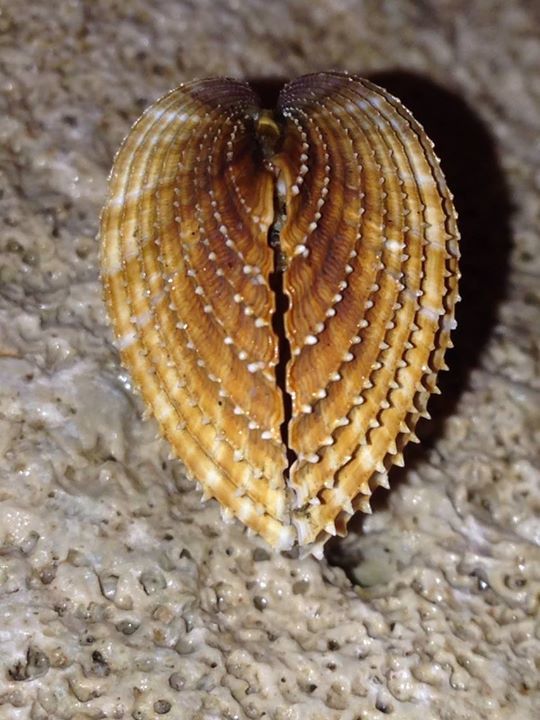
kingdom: Animalia
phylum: Mollusca
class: Bivalvia
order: Cardiida
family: Cardiidae
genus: Acanthocardia
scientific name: Acanthocardia paucicostata
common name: Poorly ribbed cockle
